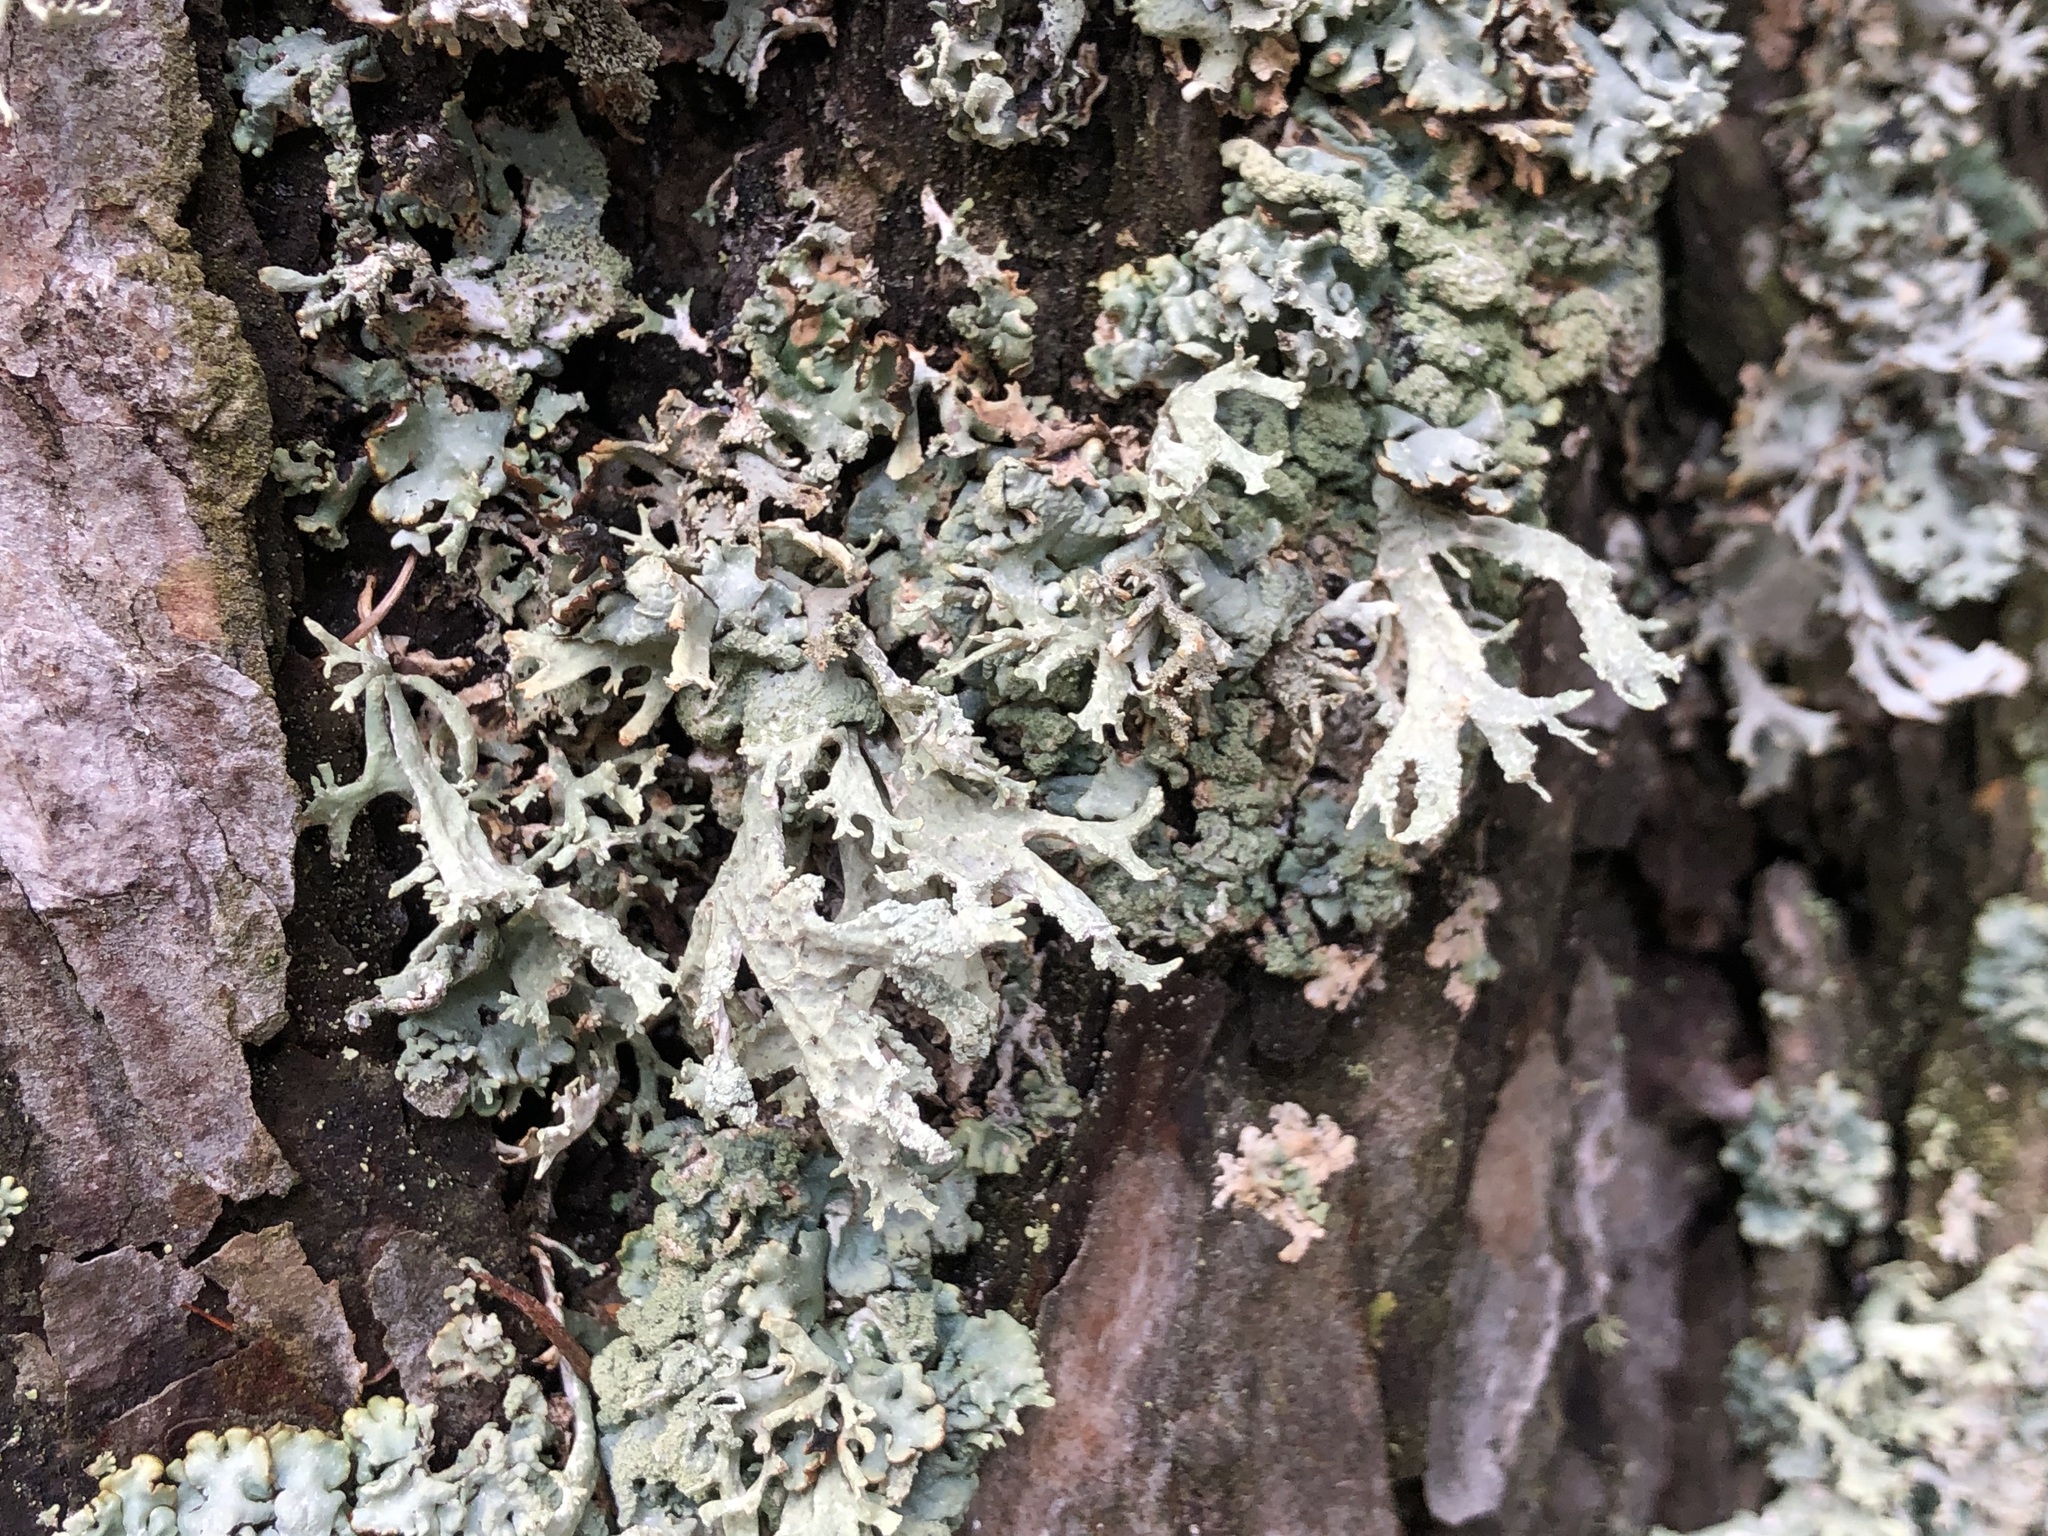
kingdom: Fungi
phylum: Ascomycota
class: Lecanoromycetes
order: Lecanorales
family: Parmeliaceae
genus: Evernia
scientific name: Evernia prunastri
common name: Oak moss
